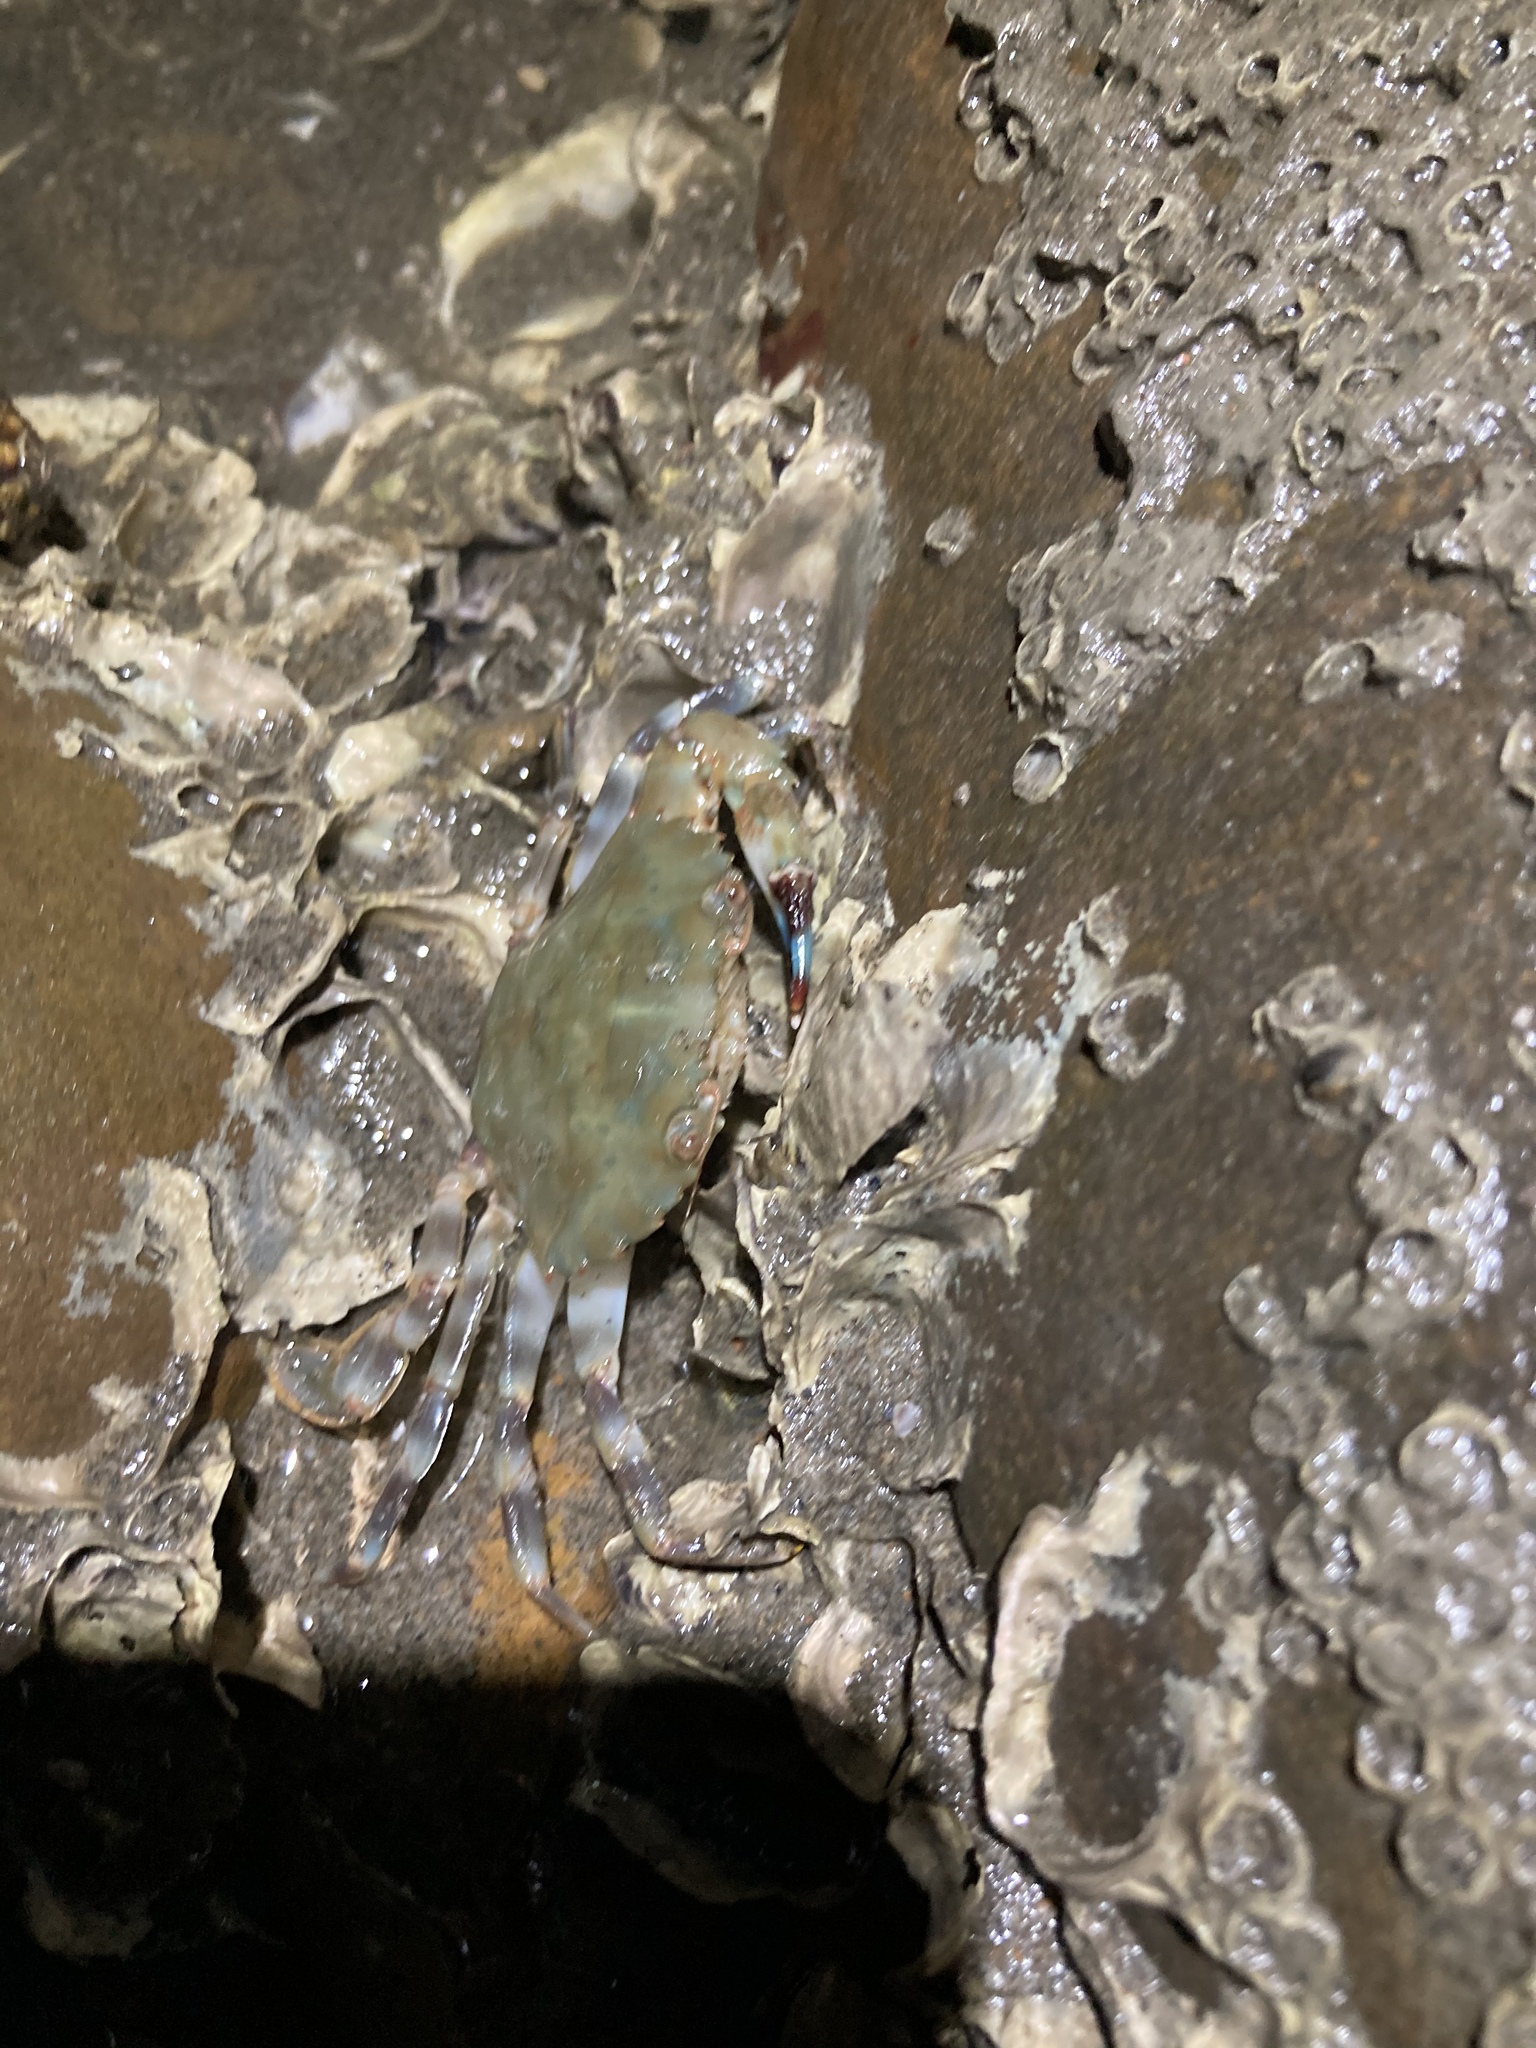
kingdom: Animalia
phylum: Arthropoda
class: Malacostraca
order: Decapoda
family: Portunidae
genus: Charybdis
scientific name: Charybdis annulata
